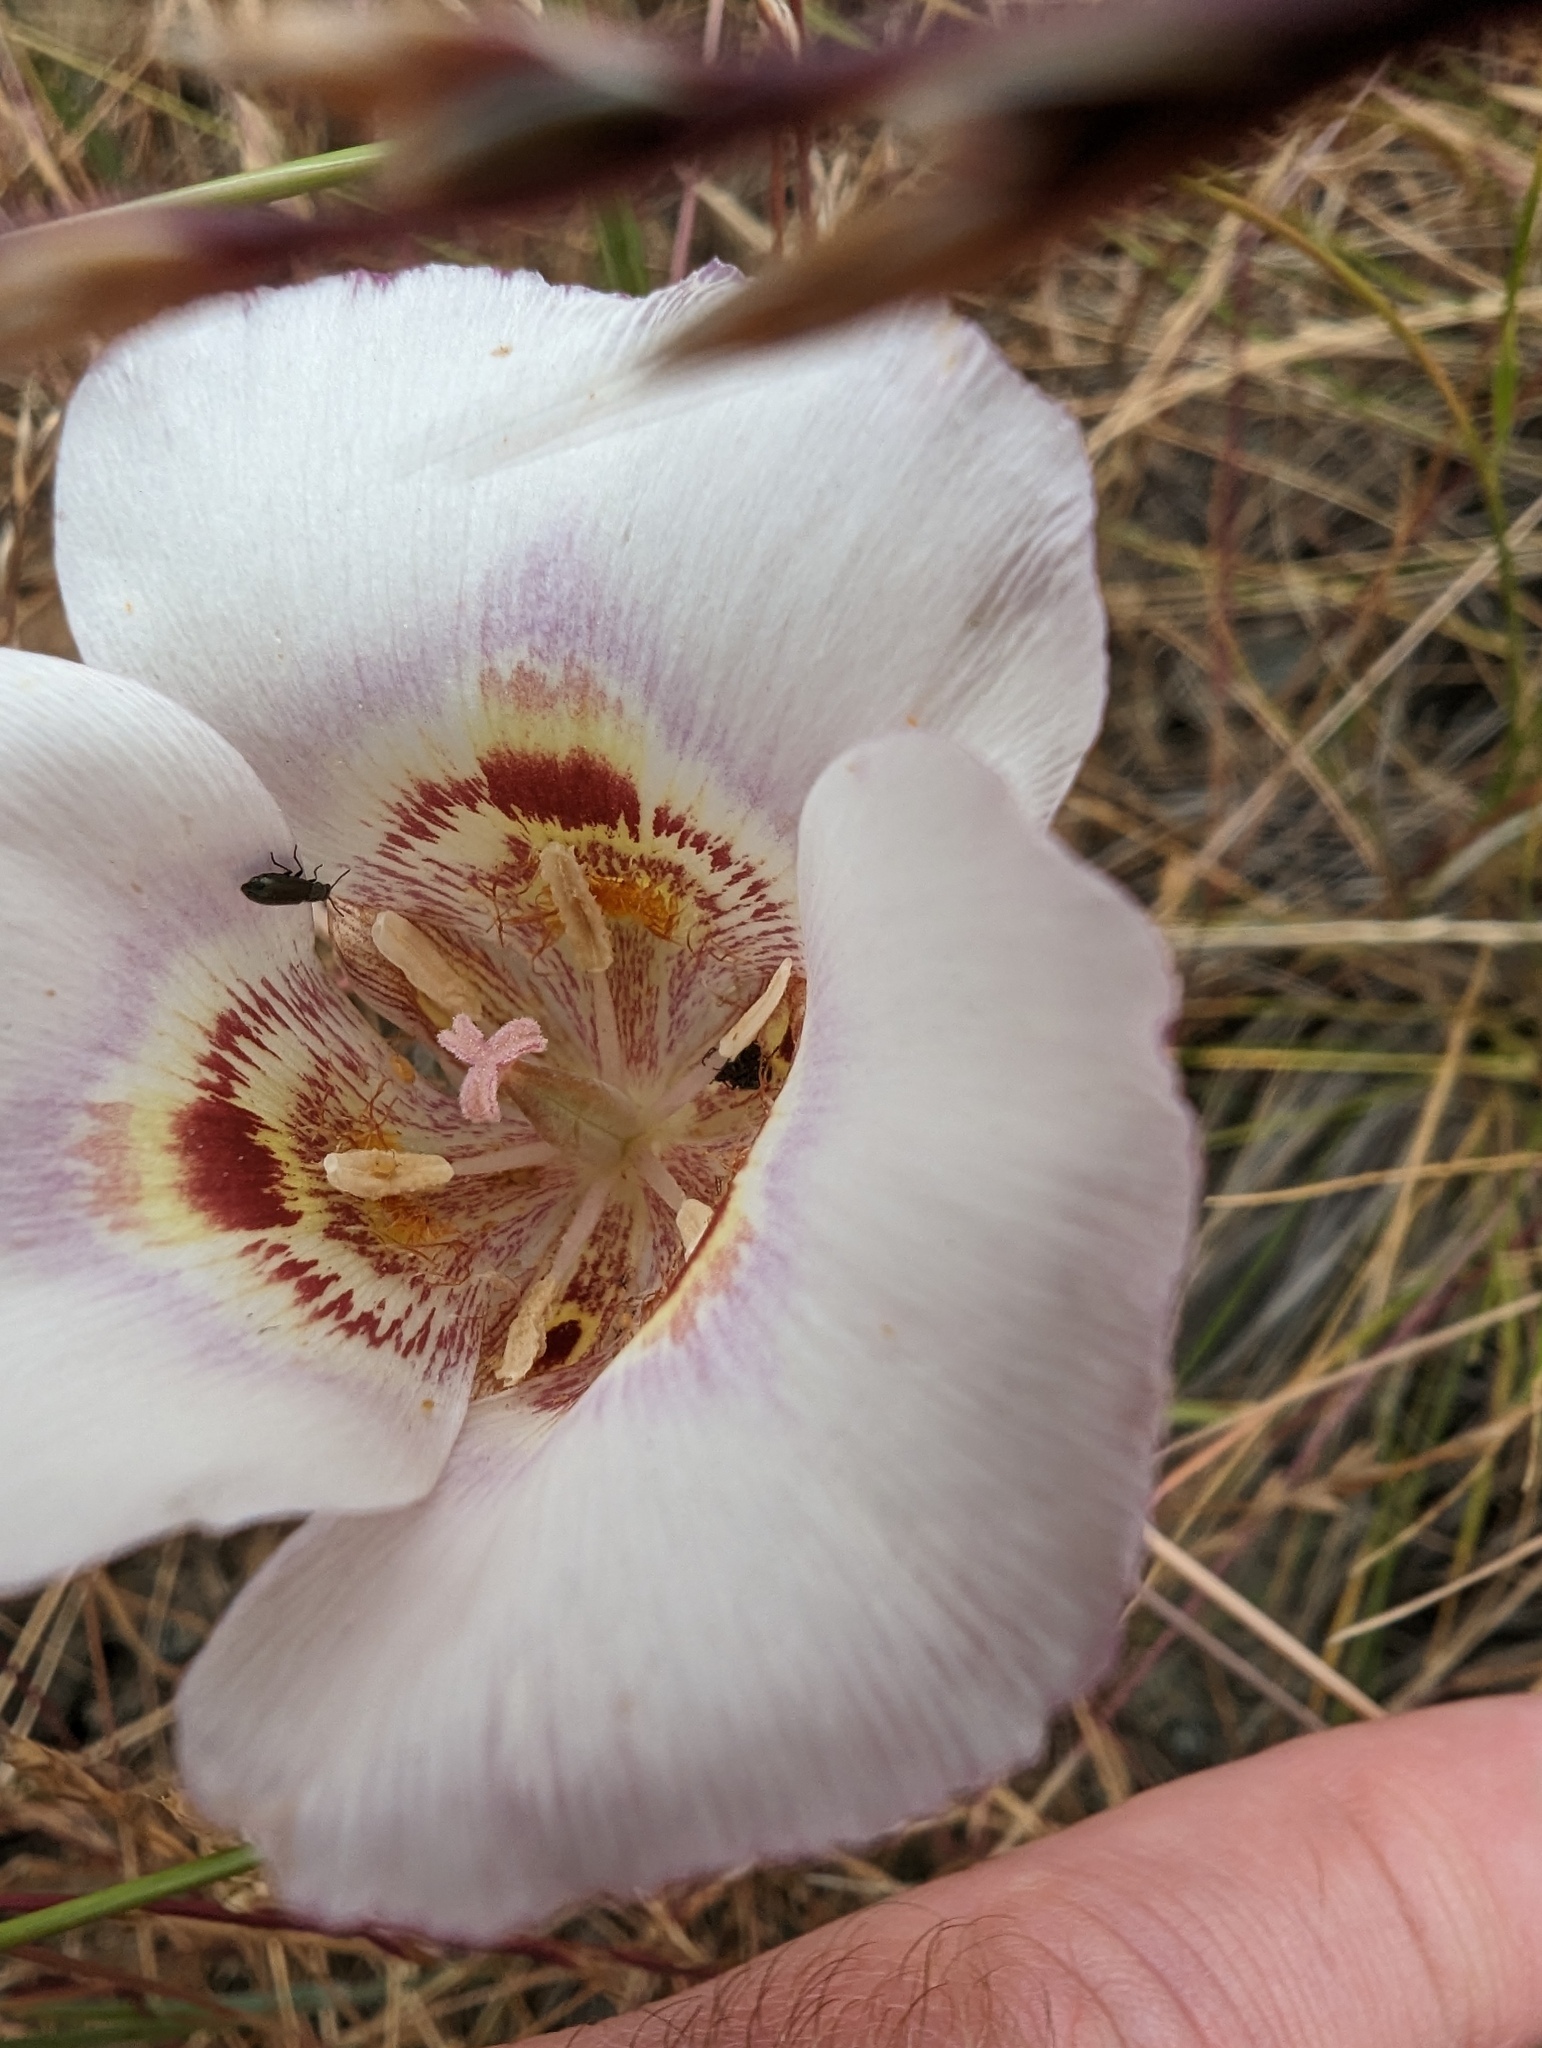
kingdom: Plantae
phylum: Tracheophyta
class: Liliopsida
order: Liliales
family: Liliaceae
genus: Calochortus
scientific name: Calochortus argillosus
